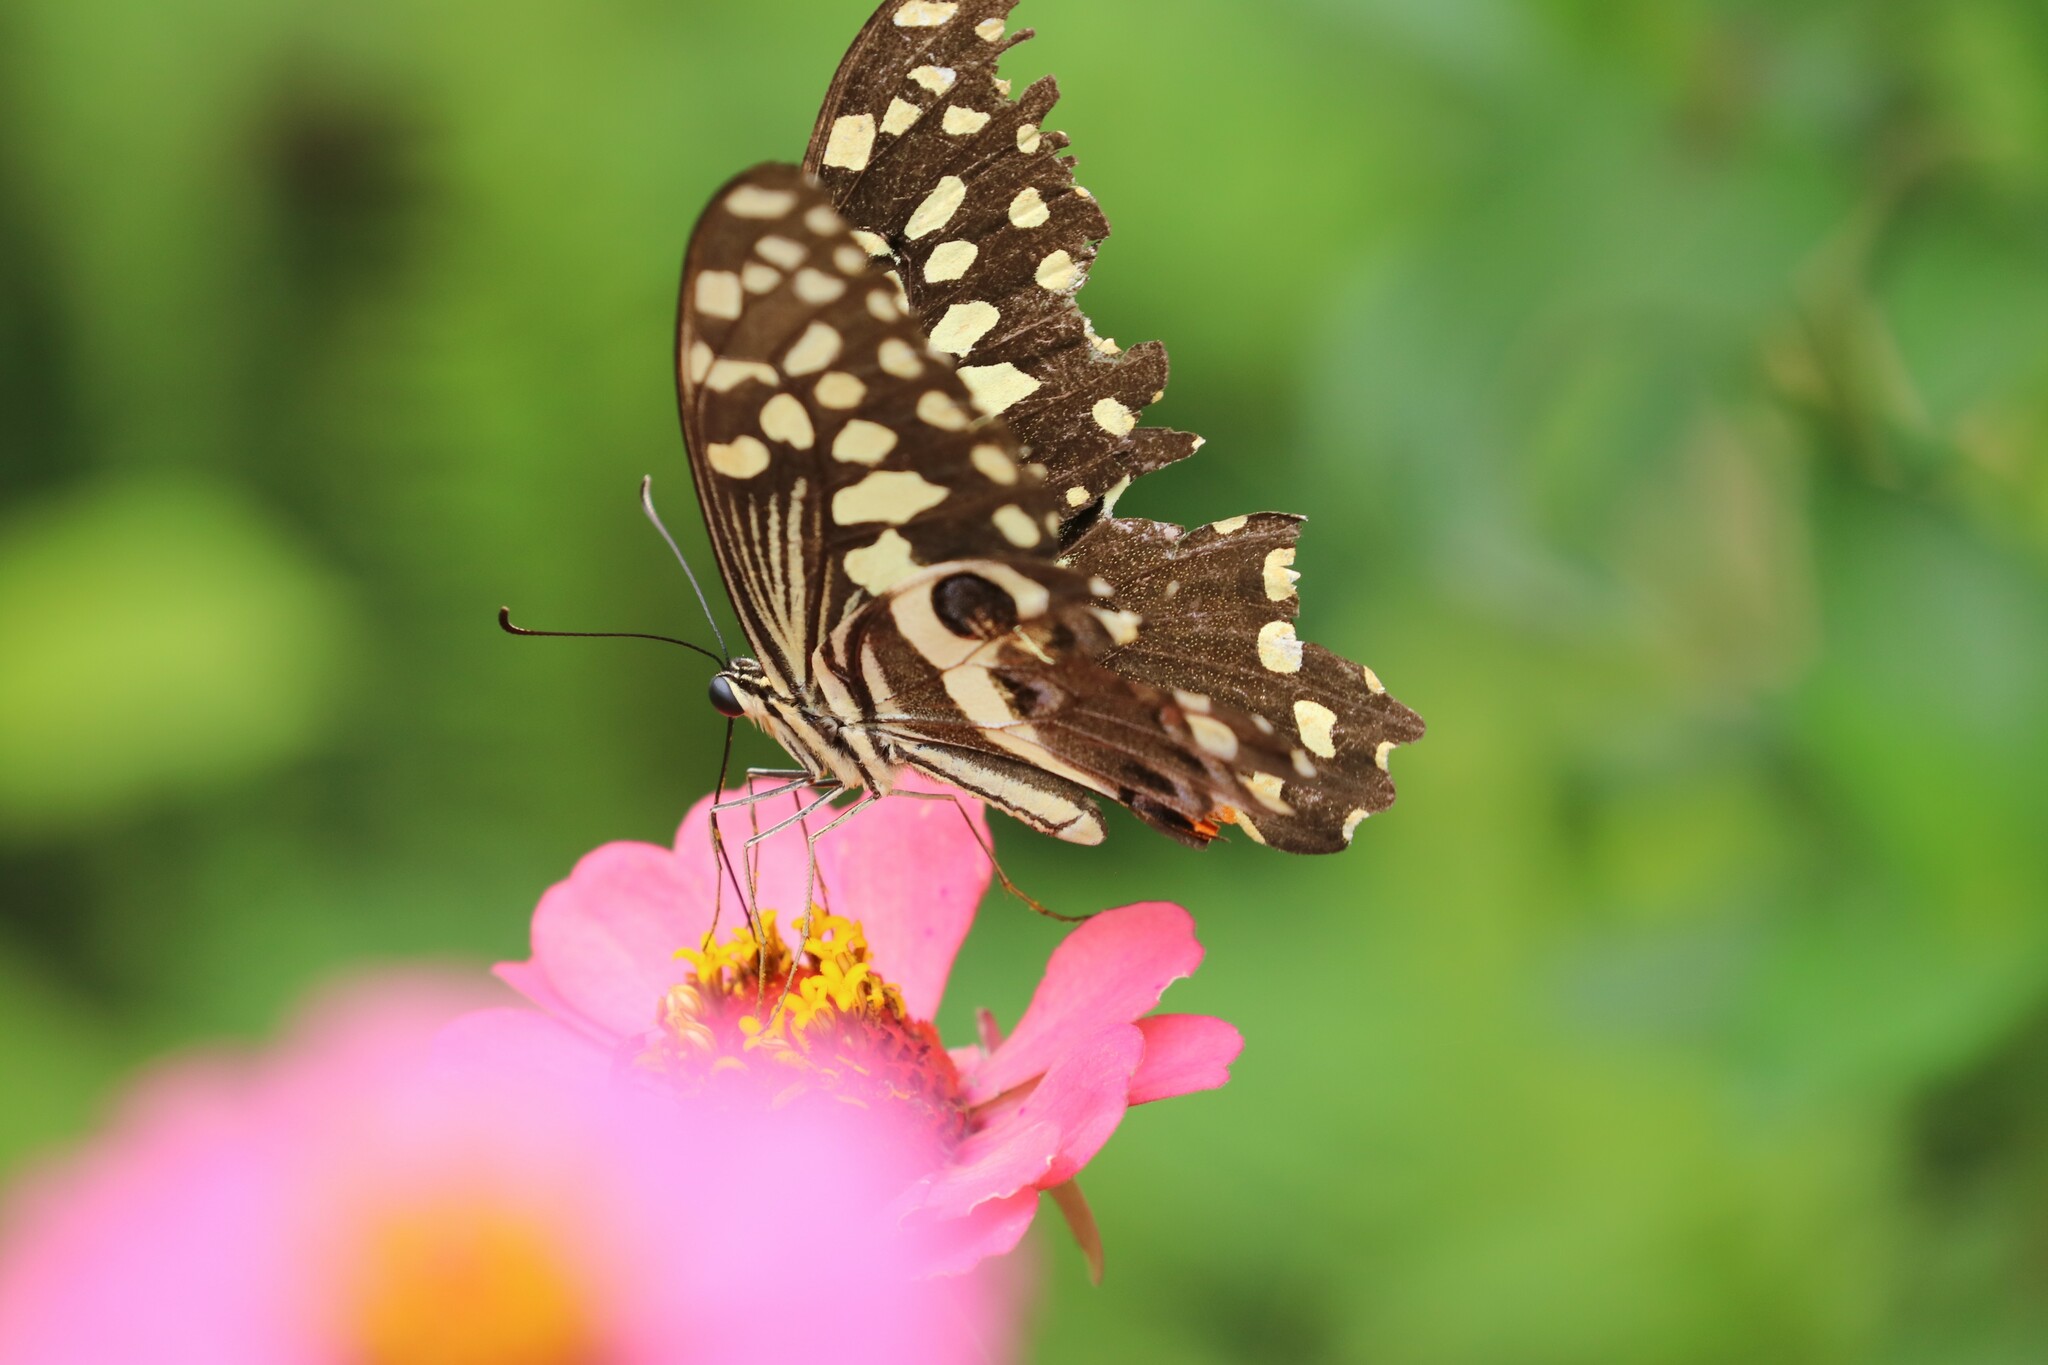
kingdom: Animalia
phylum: Arthropoda
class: Insecta
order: Lepidoptera
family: Papilionidae
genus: Papilio
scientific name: Papilio demodocus
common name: Christmas butterfly
